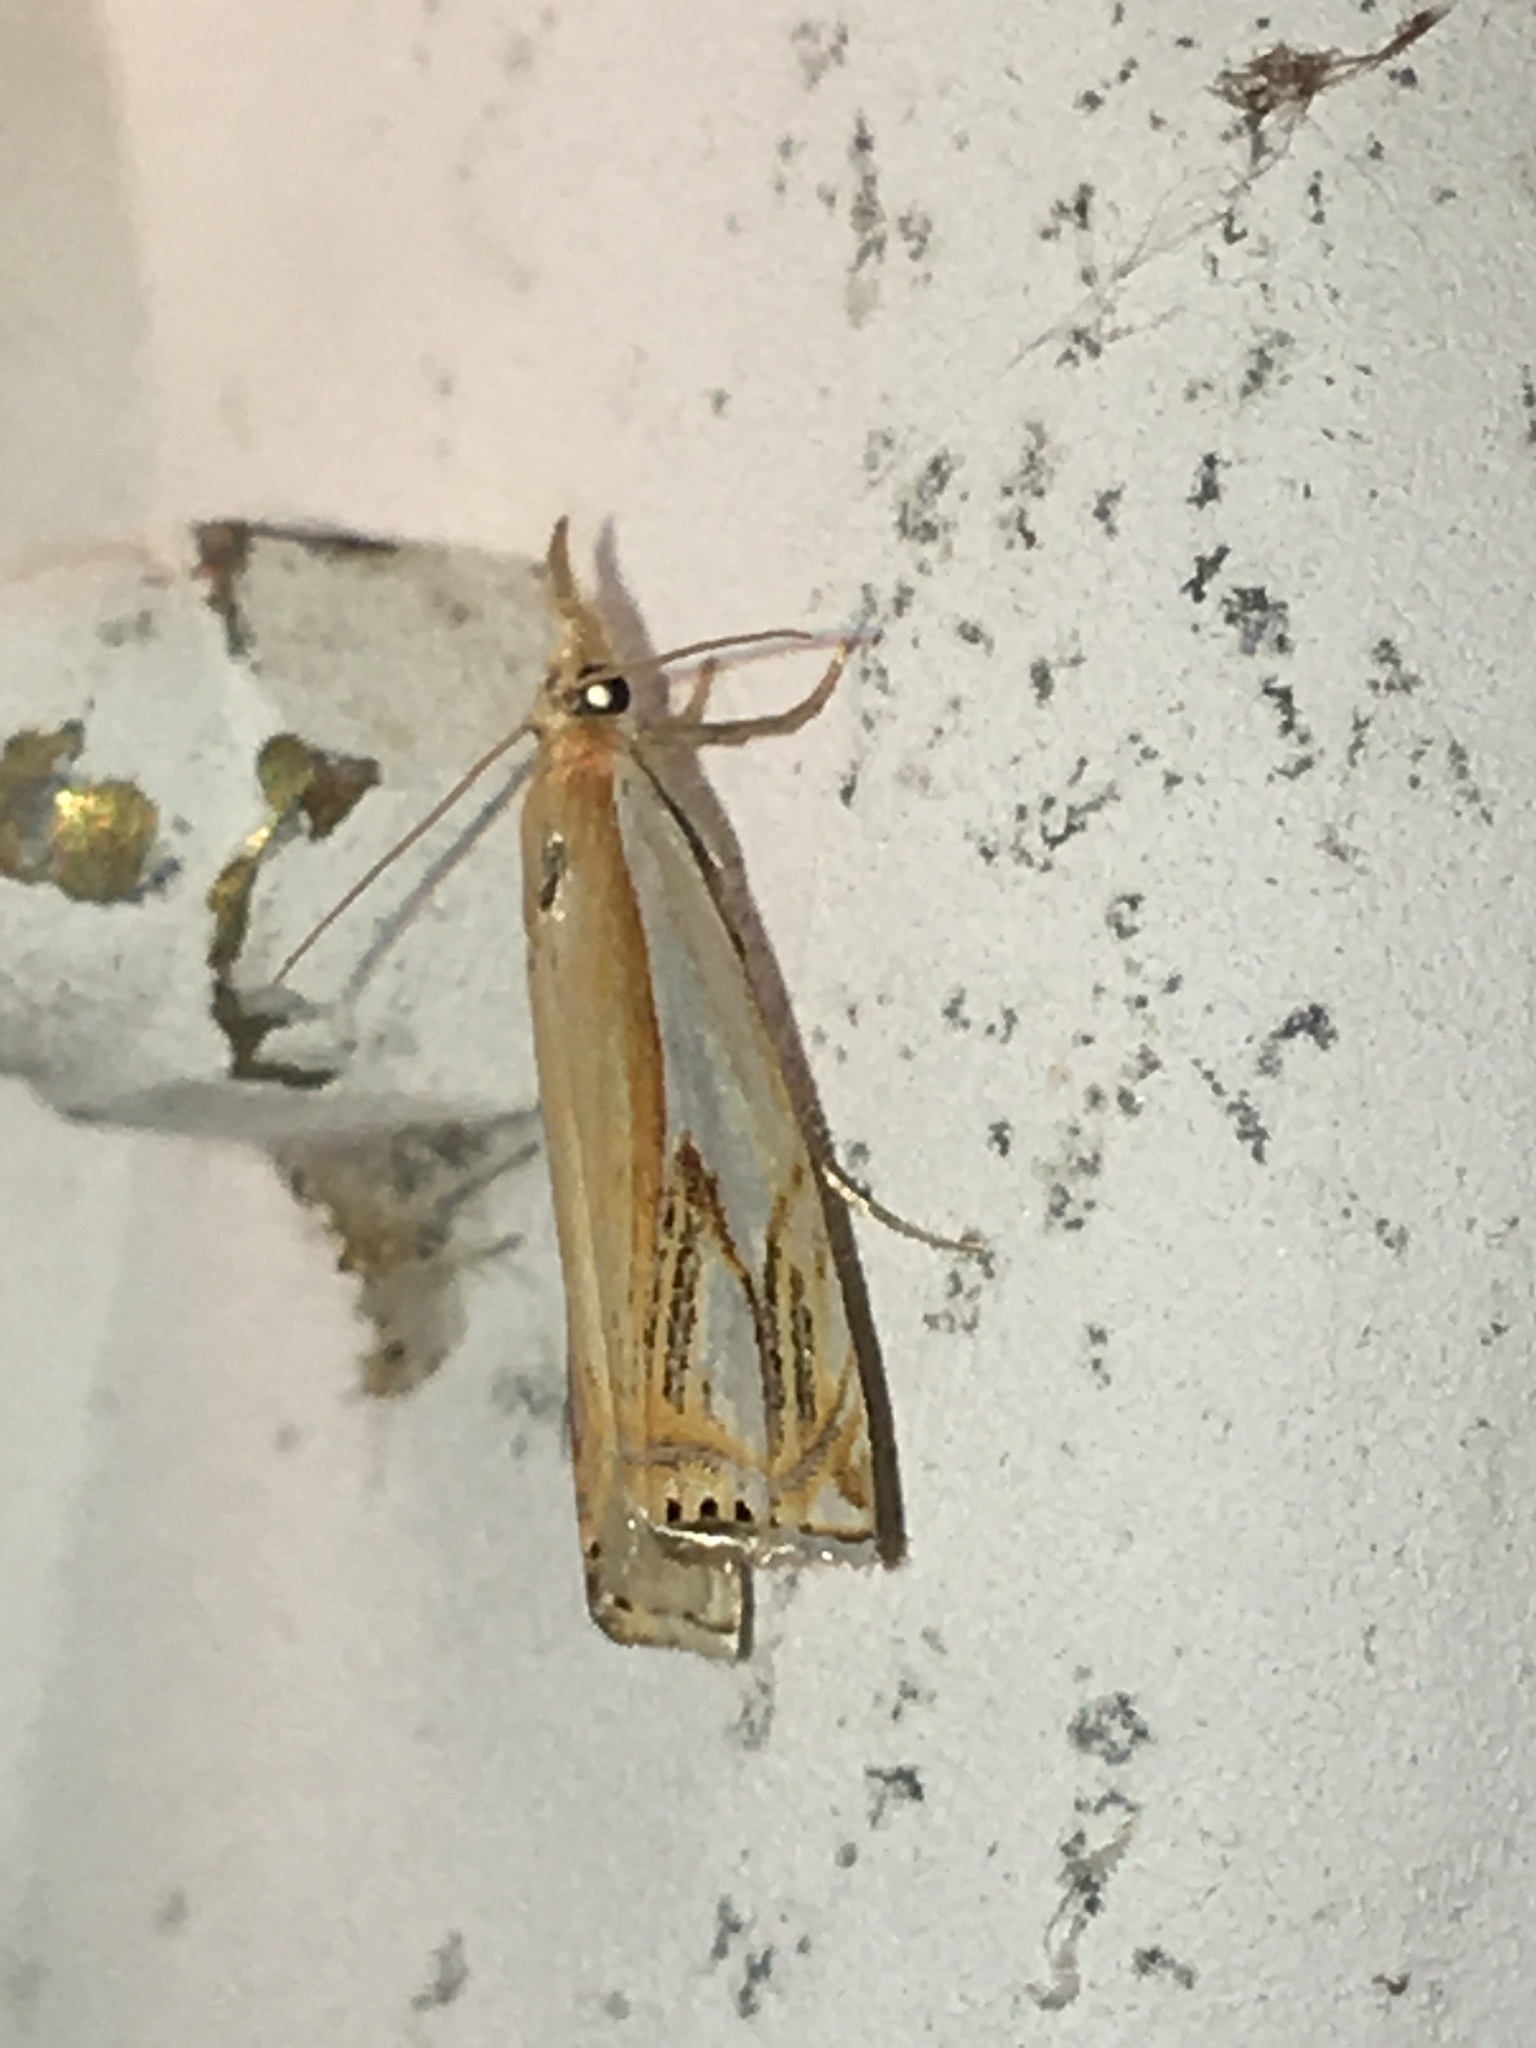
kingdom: Animalia
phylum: Arthropoda
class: Insecta
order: Lepidoptera
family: Crambidae
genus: Crambus
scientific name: Crambus agitatellus
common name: Double-banded grass-veneer
